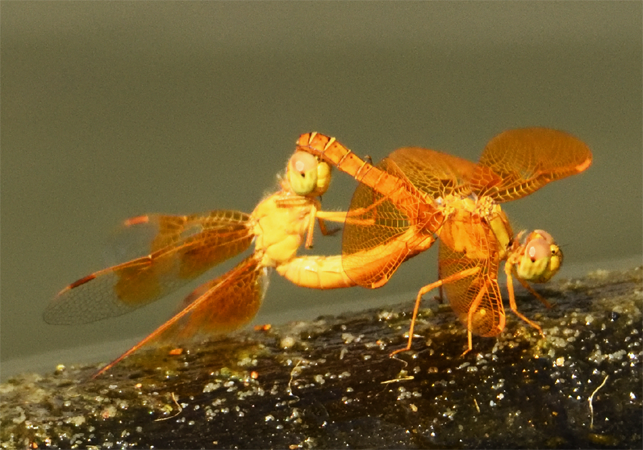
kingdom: Animalia
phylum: Arthropoda
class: Insecta
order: Odonata
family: Libellulidae
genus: Perithemis
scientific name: Perithemis intensa
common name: Mexican amberwing
